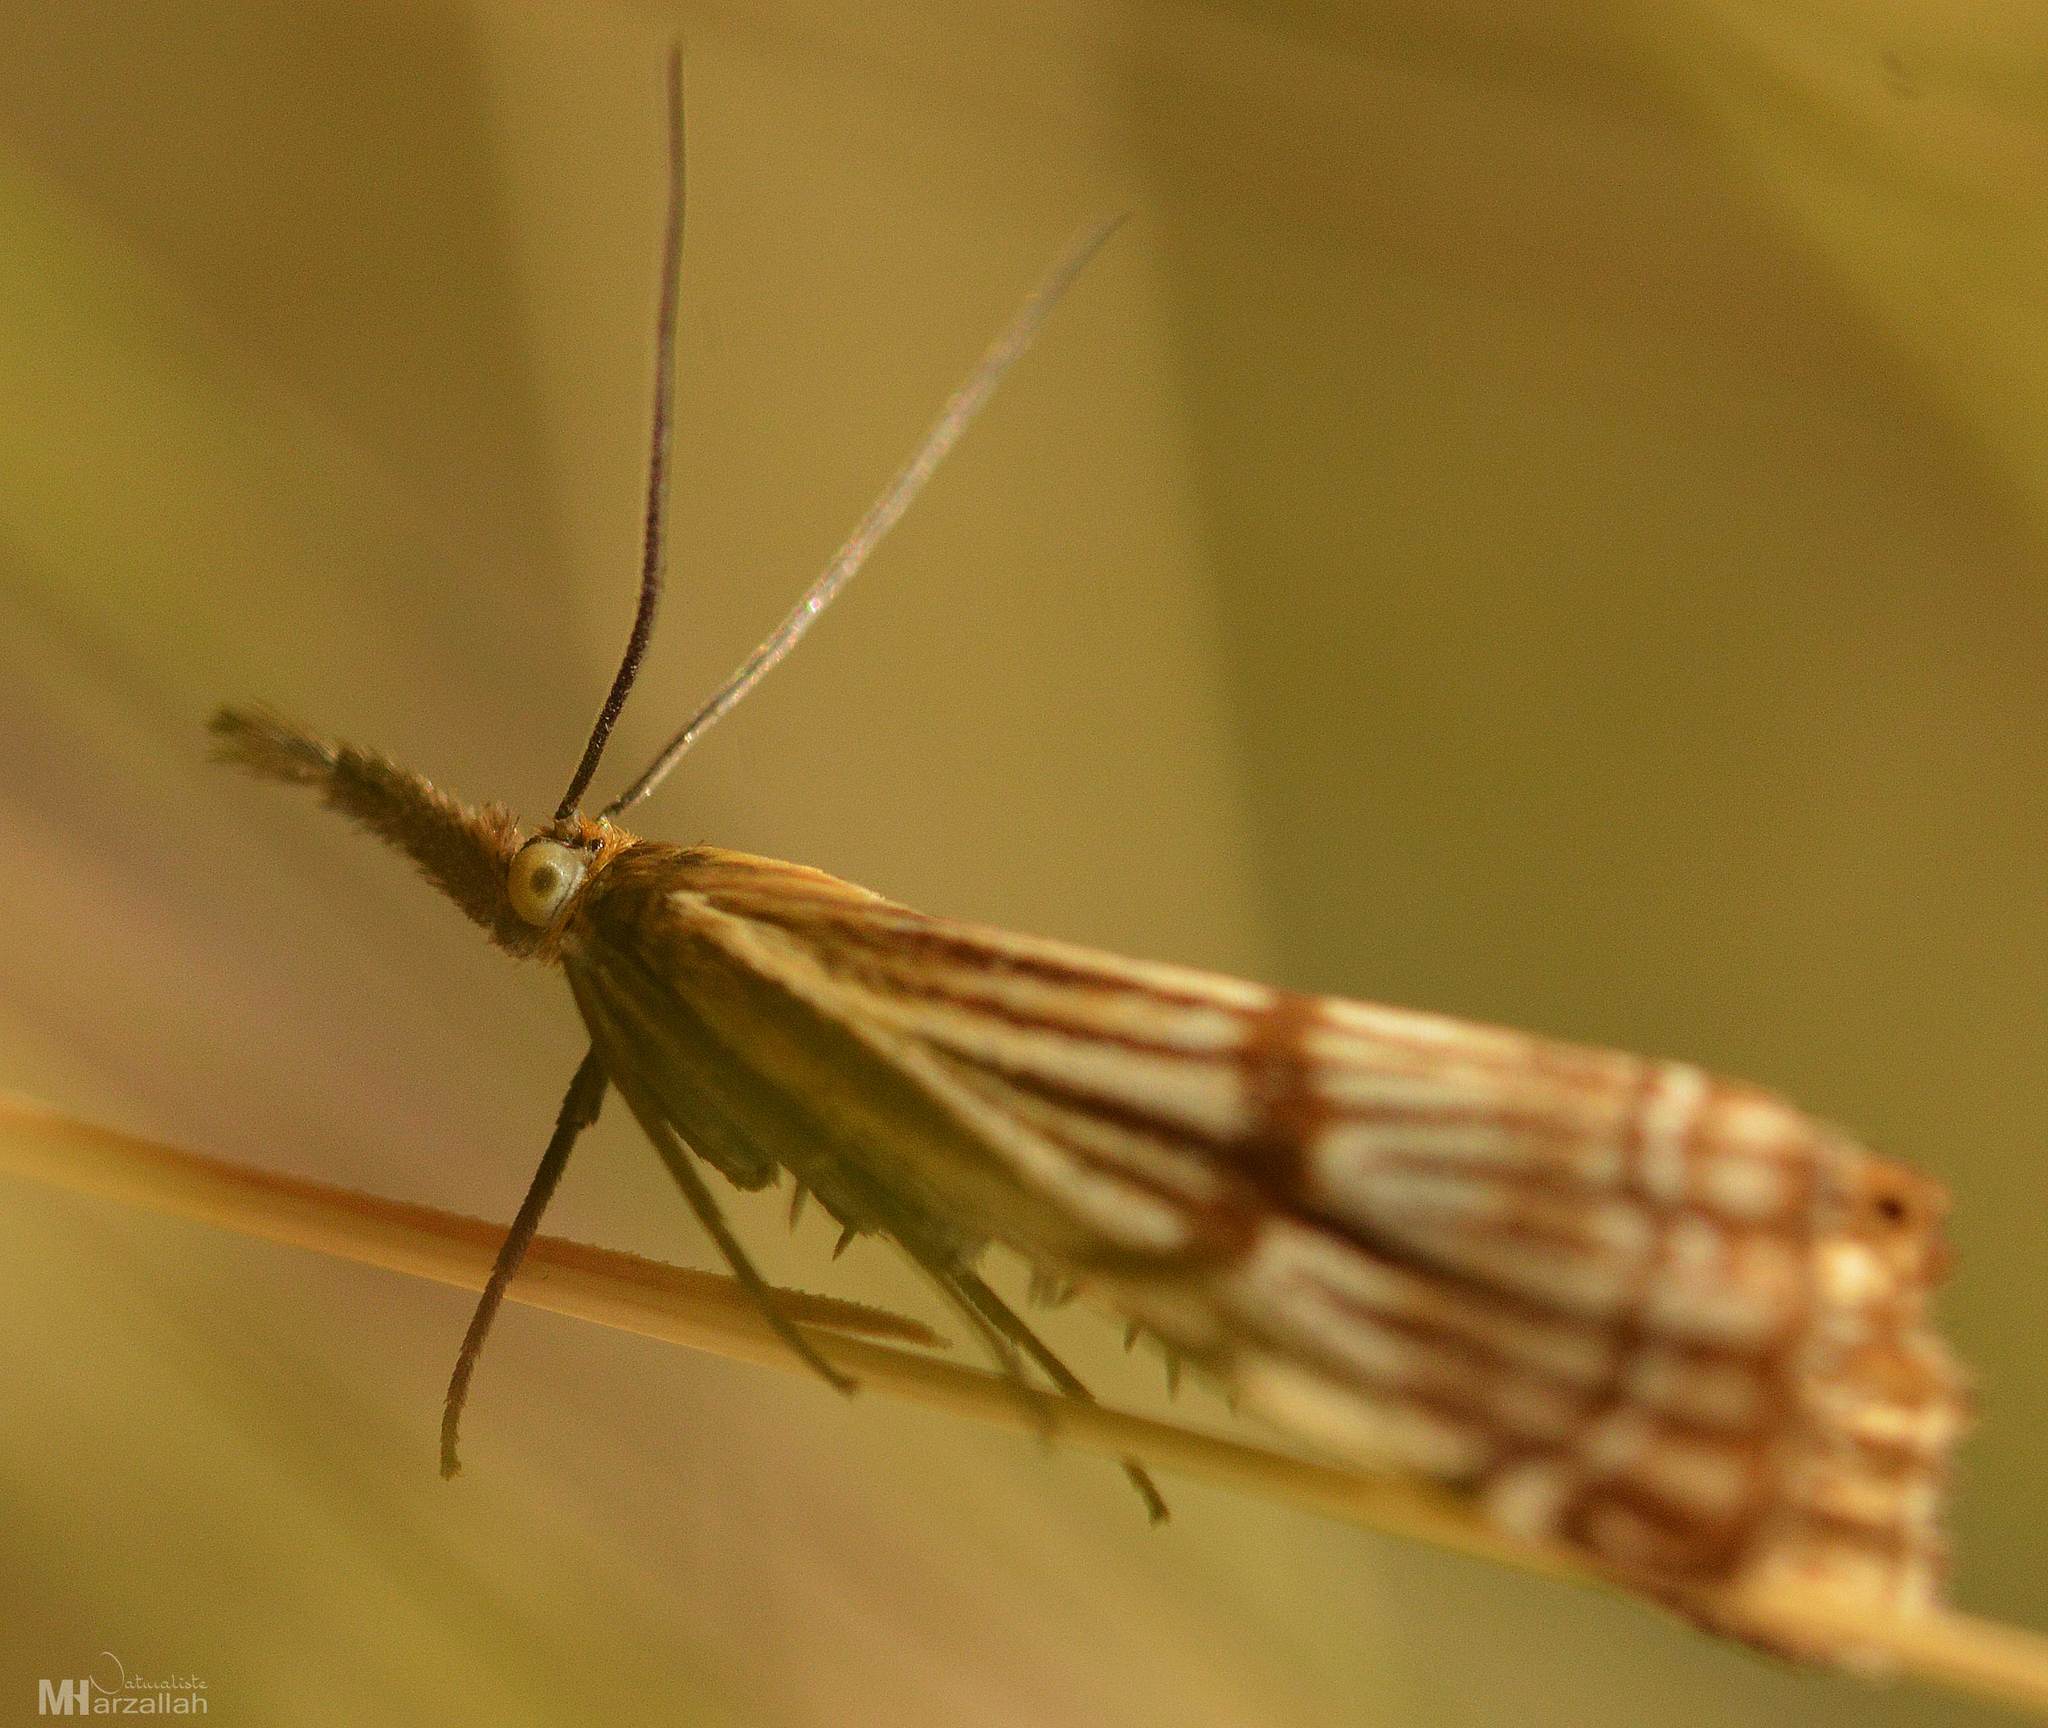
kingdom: Animalia
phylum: Arthropoda
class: Insecta
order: Lepidoptera
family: Crambidae
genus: Chrysocrambus
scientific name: Chrysocrambus linetella
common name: Orange-bar grass-veneer
